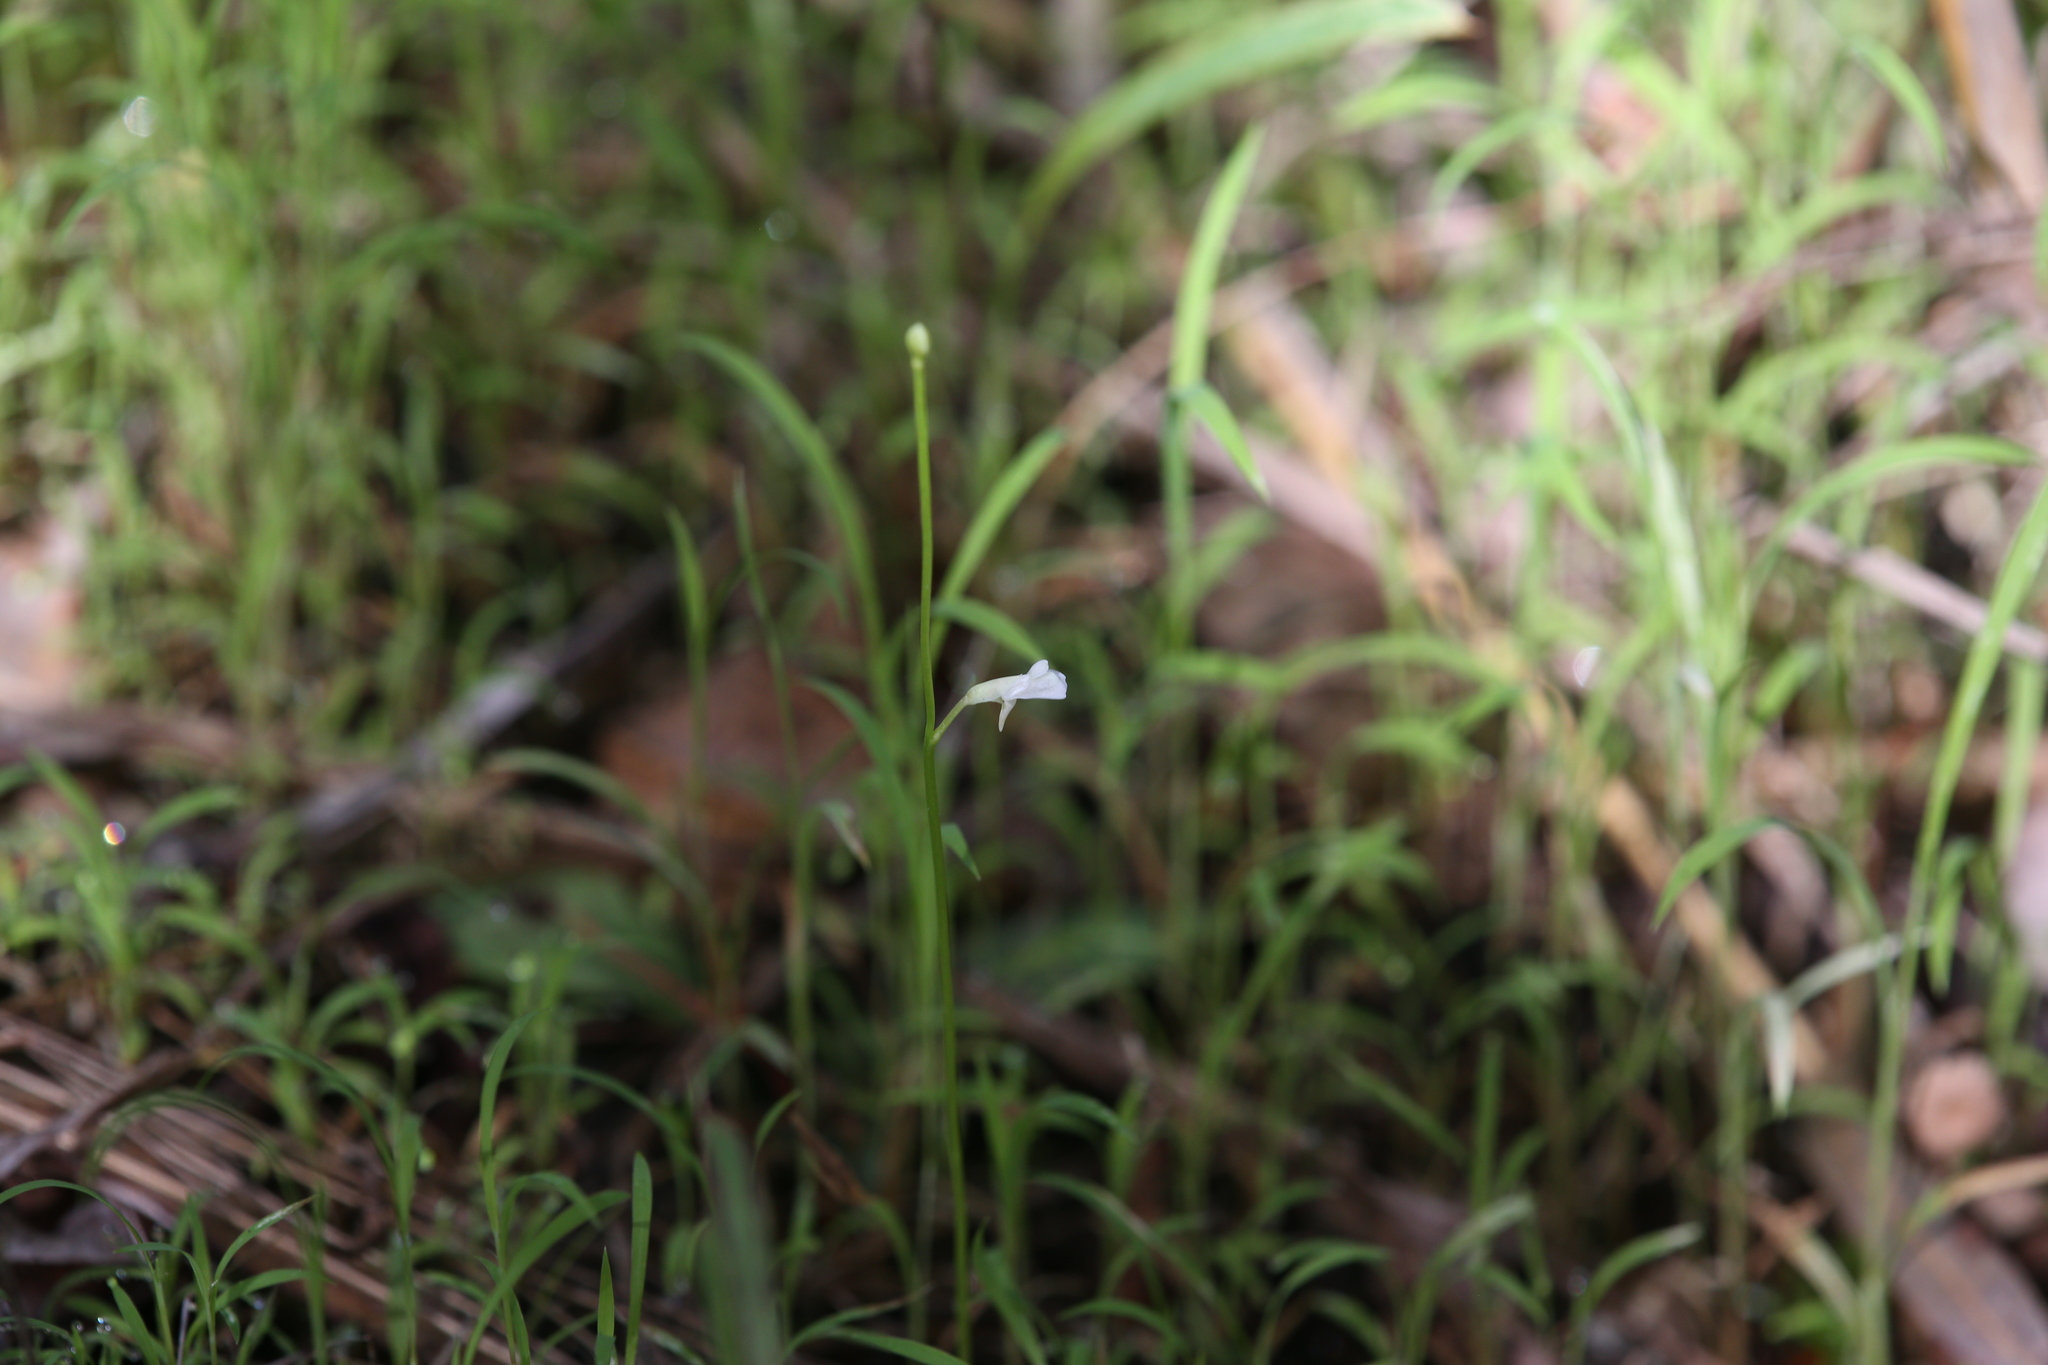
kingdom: Plantae
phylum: Tracheophyta
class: Magnoliopsida
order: Lamiales
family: Lentibulariaceae
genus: Utricularia
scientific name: Utricularia uliginosa
